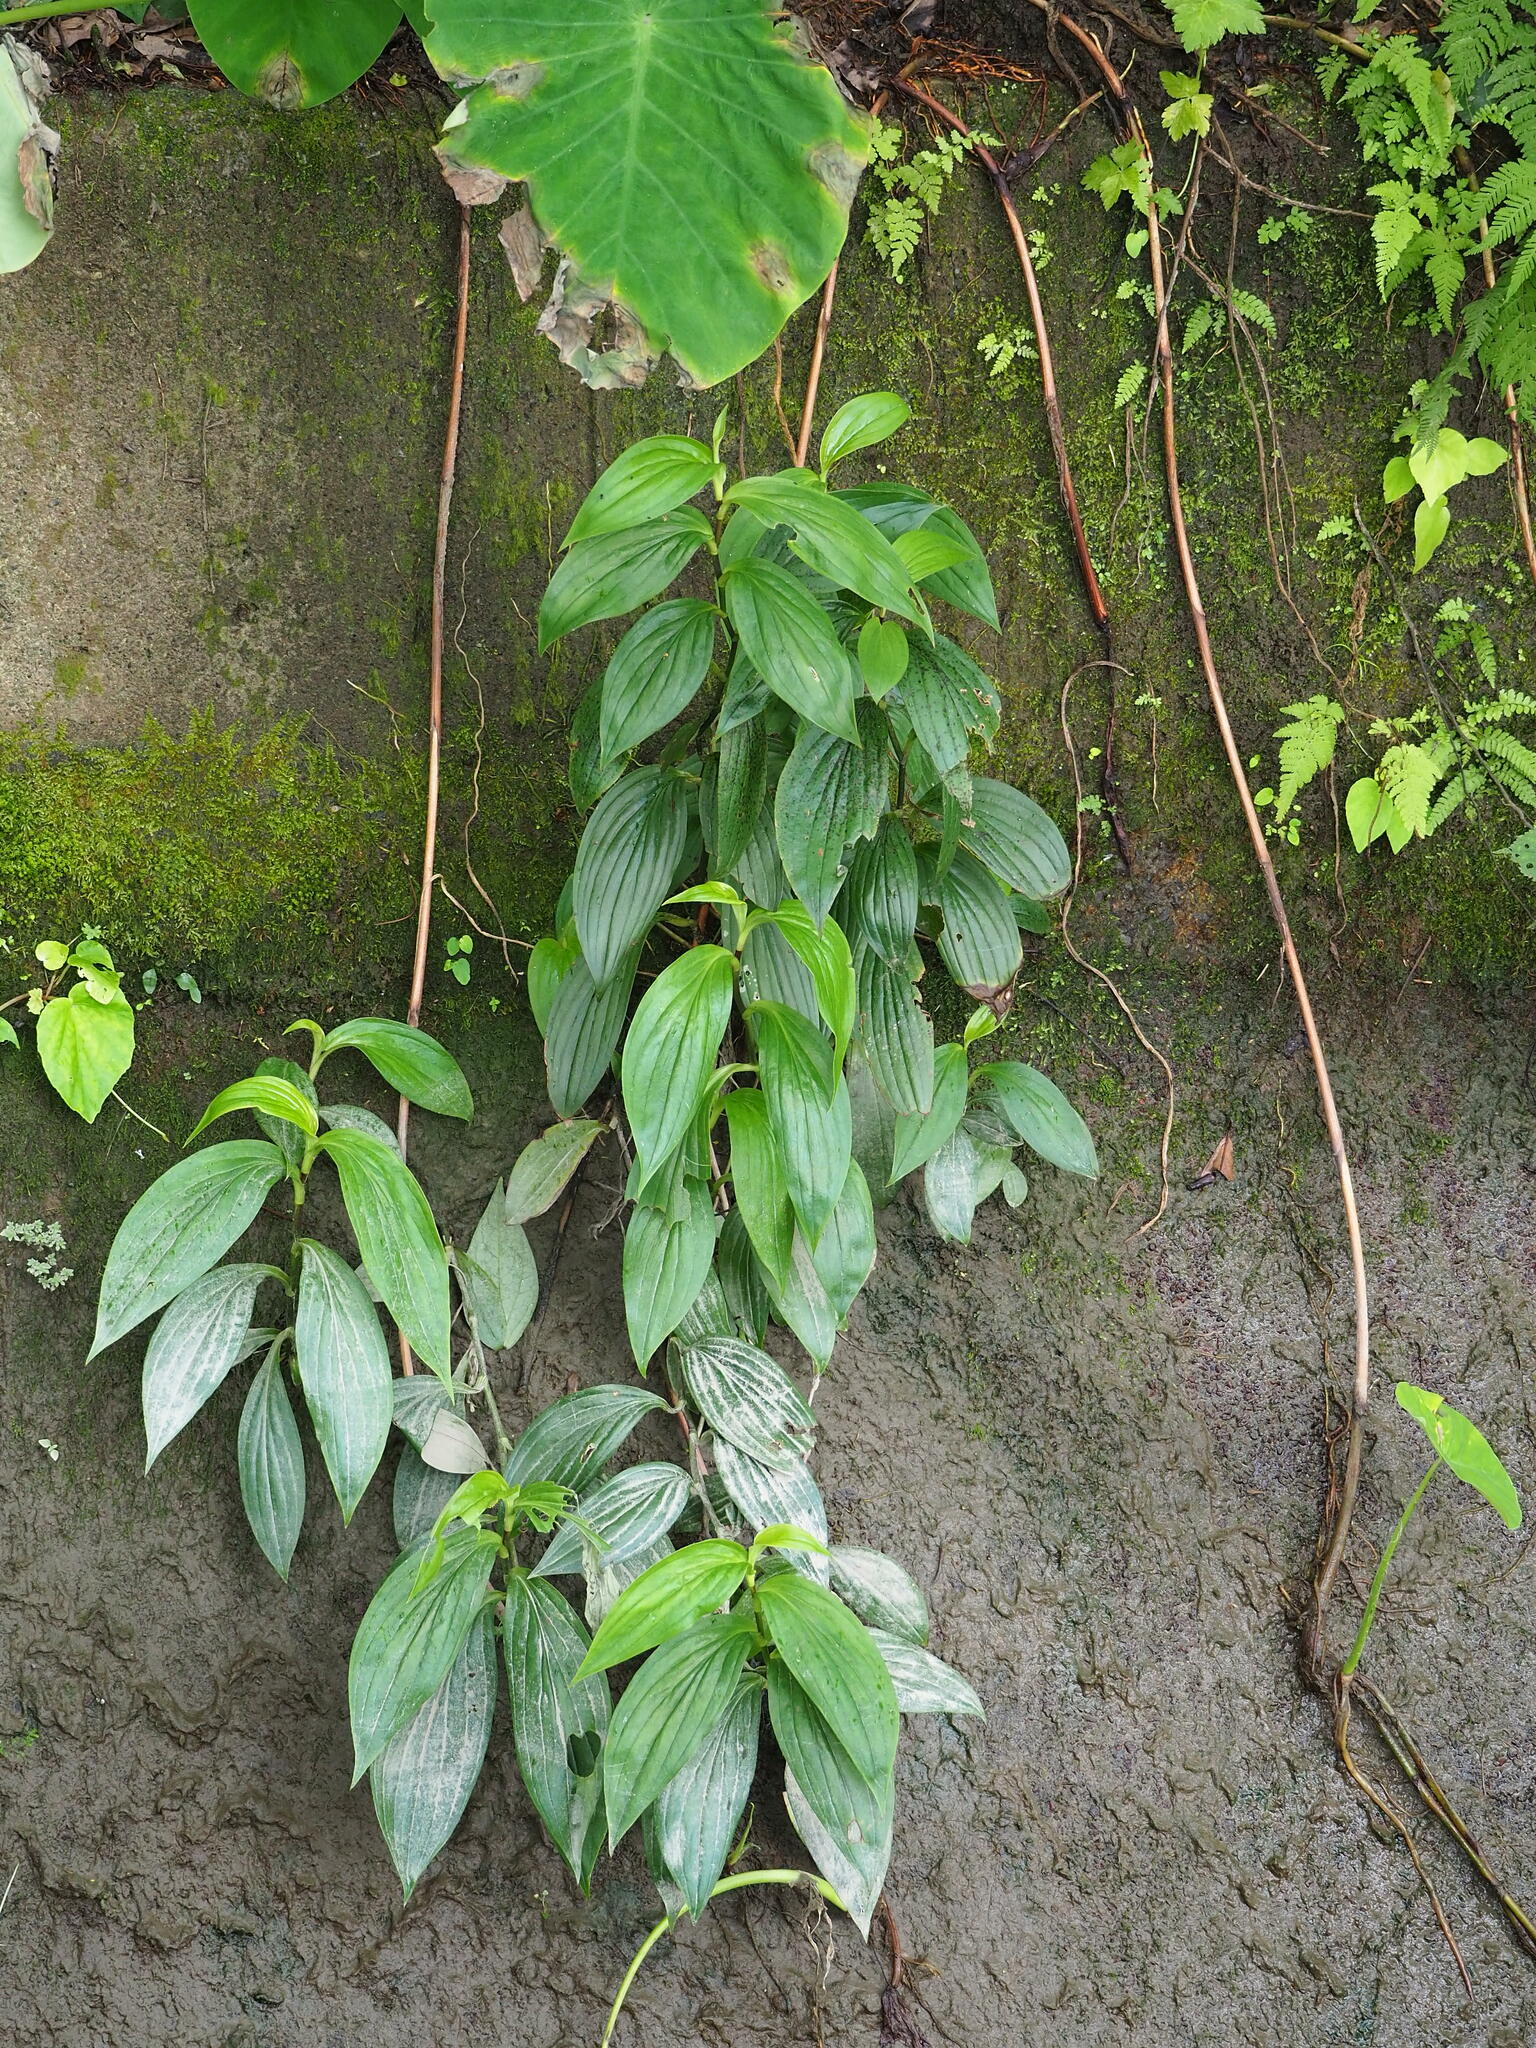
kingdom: Plantae
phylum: Tracheophyta
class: Liliopsida
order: Liliales
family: Liliaceae
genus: Tricyrtis
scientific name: Tricyrtis formosana
